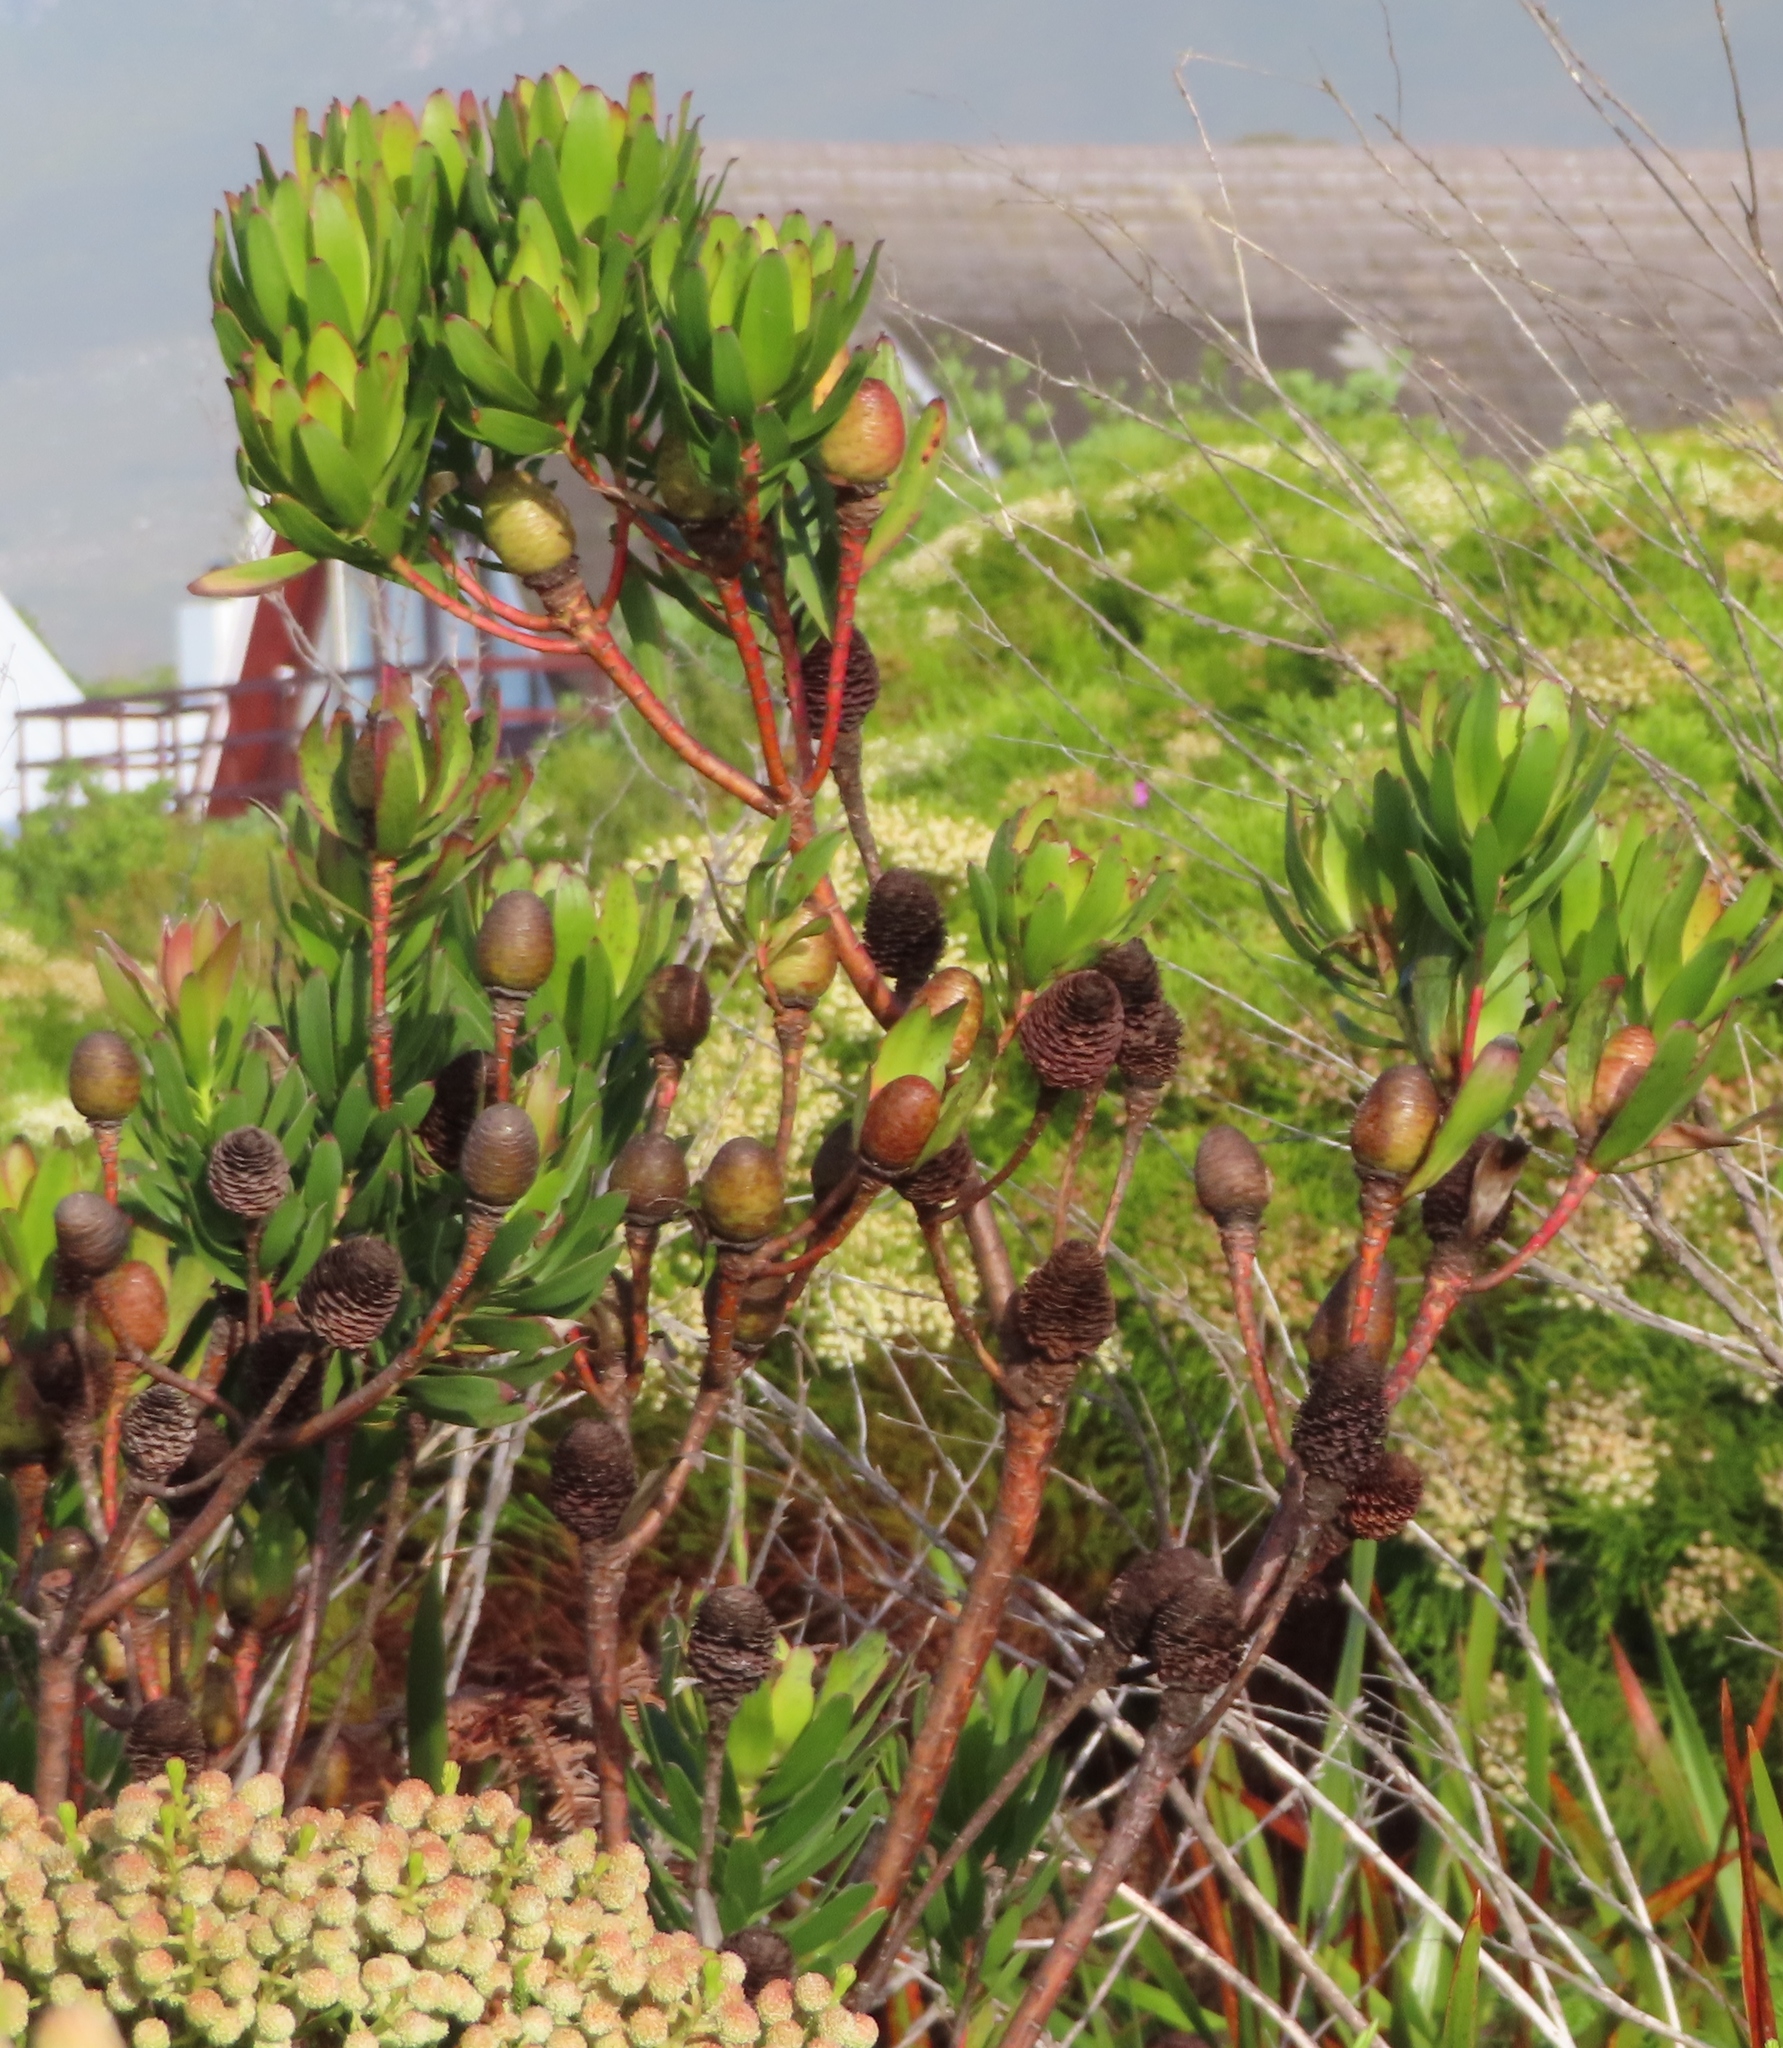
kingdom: Plantae
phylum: Tracheophyta
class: Magnoliopsida
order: Proteales
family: Proteaceae
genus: Leucadendron
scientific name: Leucadendron gandogeri
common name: Broad-leaf conebush
